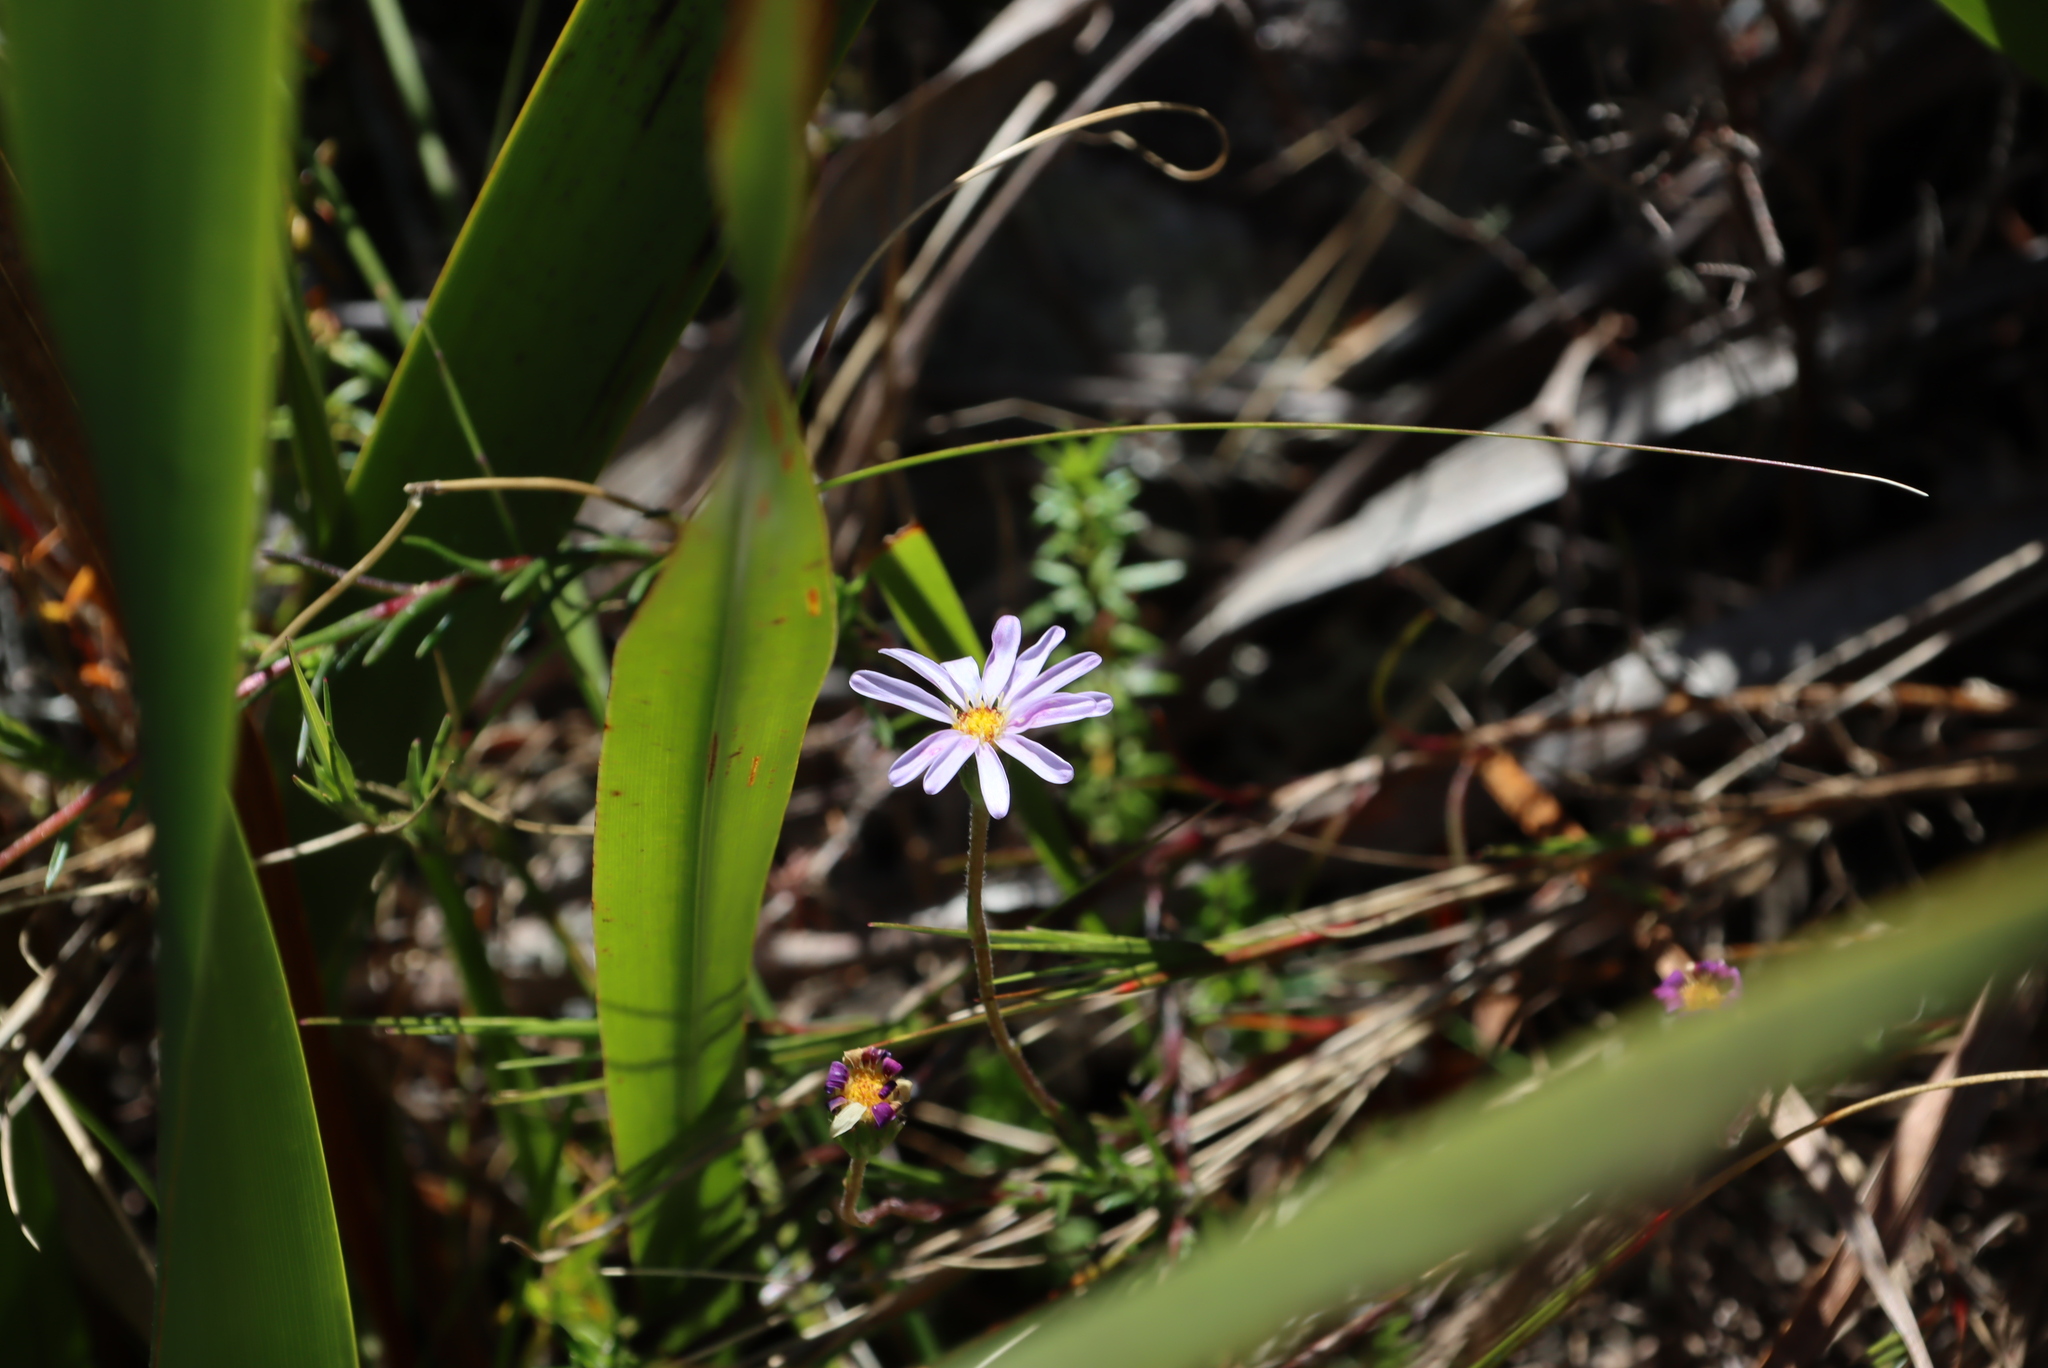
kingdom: Plantae
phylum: Tracheophyta
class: Magnoliopsida
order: Asterales
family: Asteraceae
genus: Zyrphelis
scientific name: Zyrphelis taxifolia
